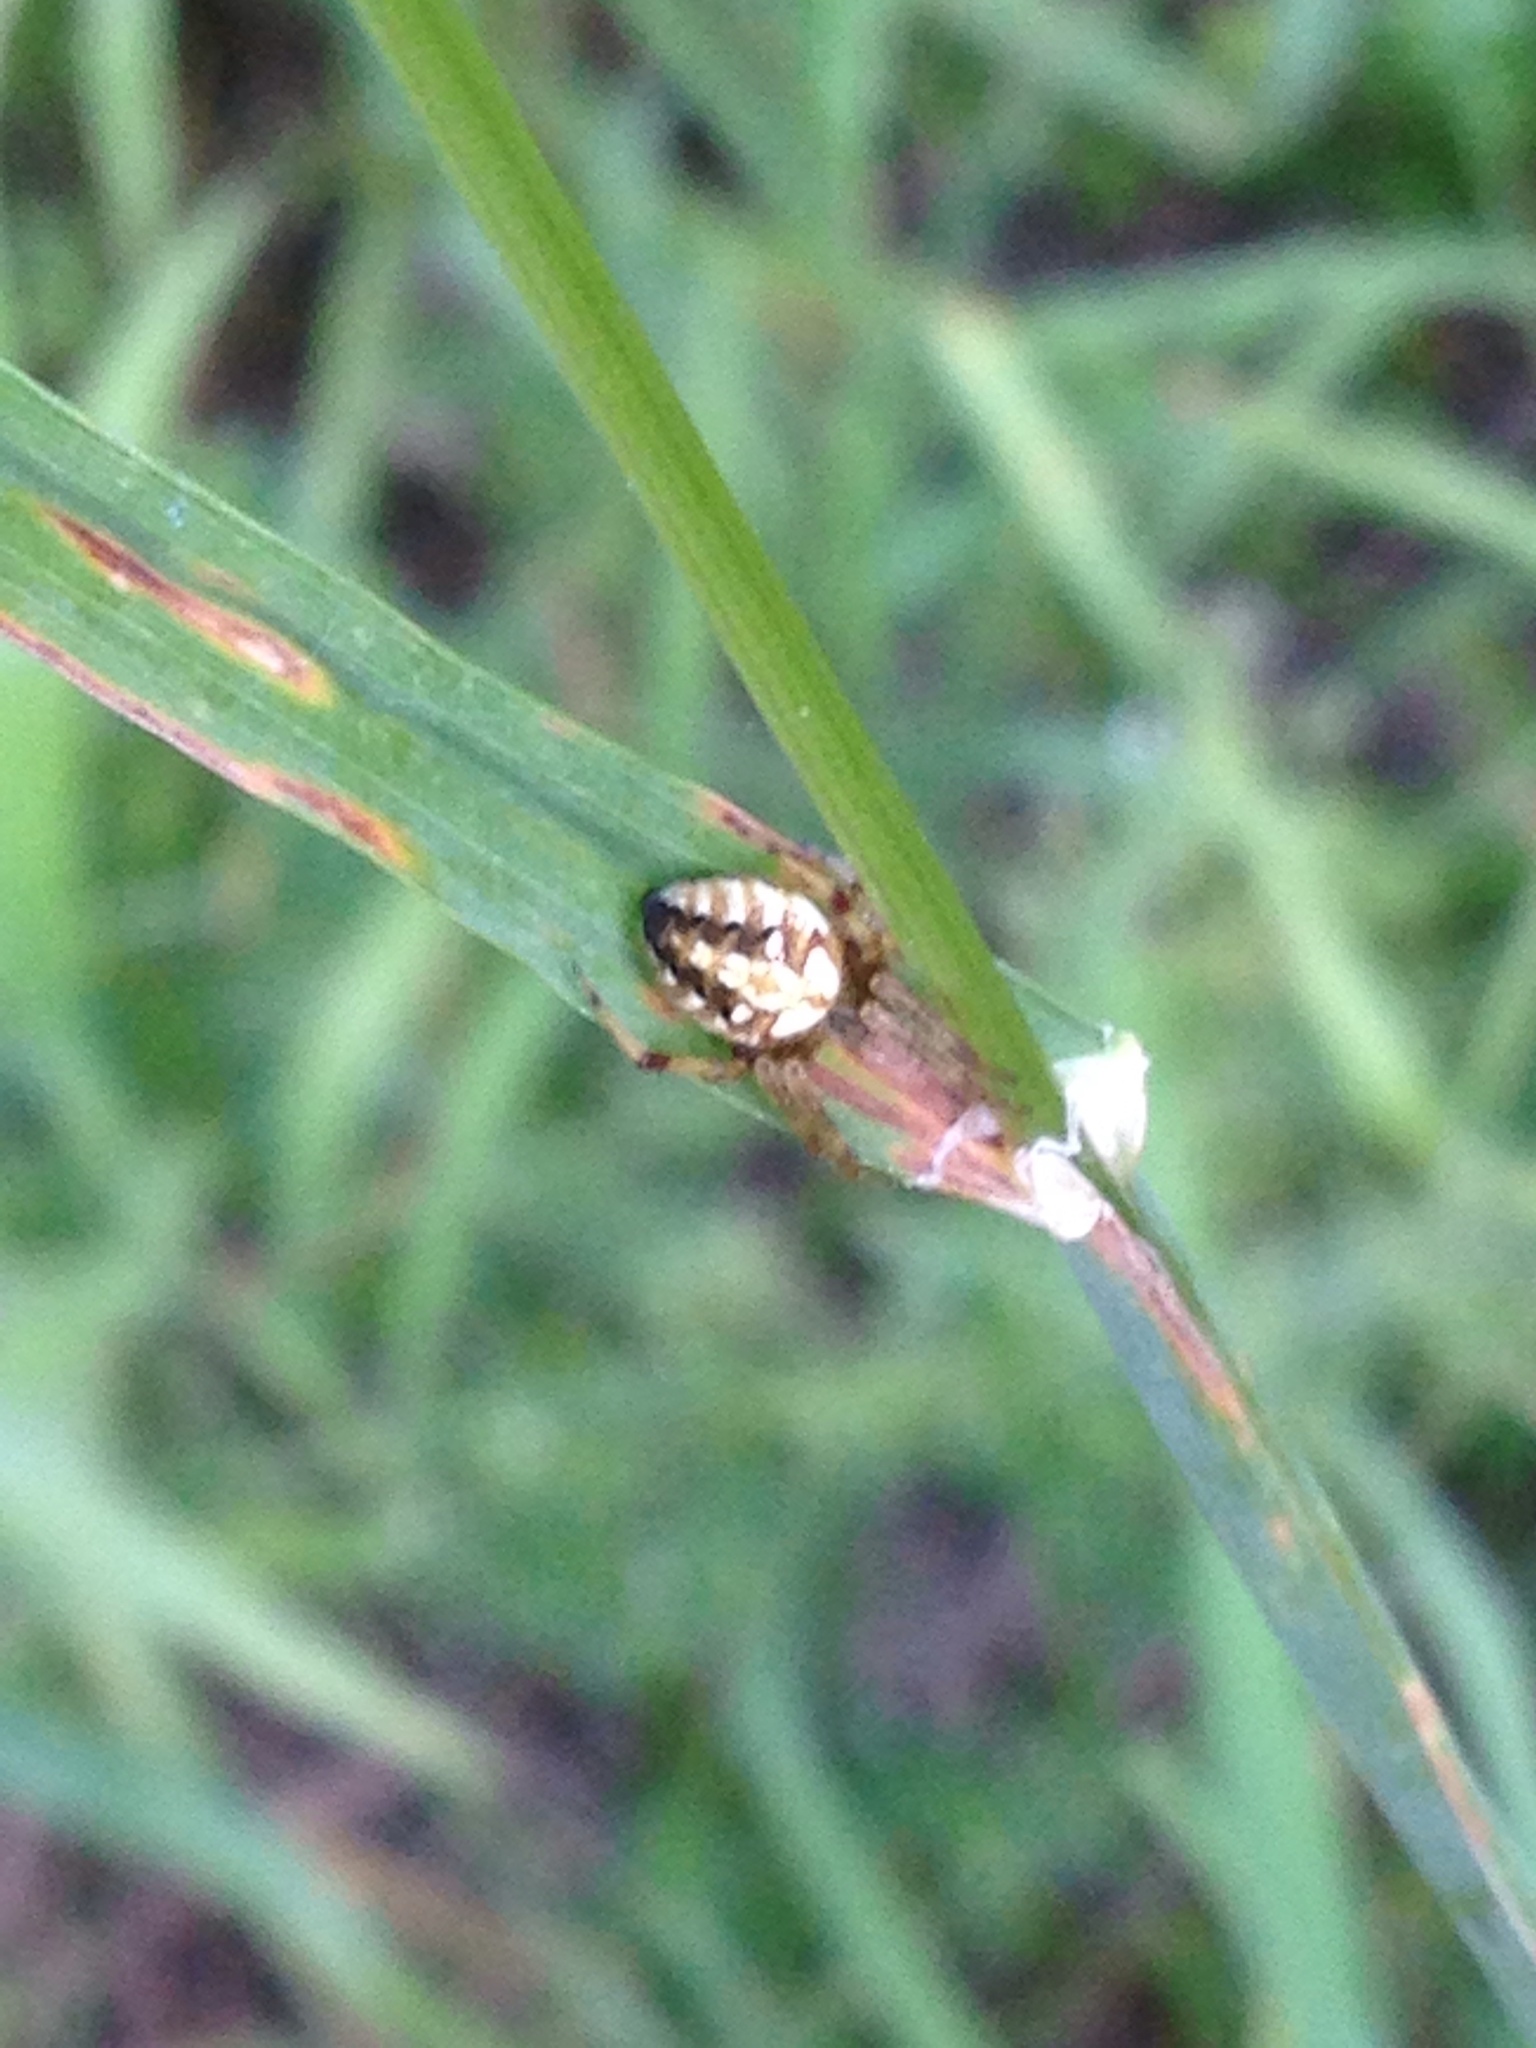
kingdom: Animalia
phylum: Arthropoda
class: Arachnida
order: Araneae
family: Araneidae
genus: Neoscona
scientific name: Neoscona arabesca
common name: Orb weavers
